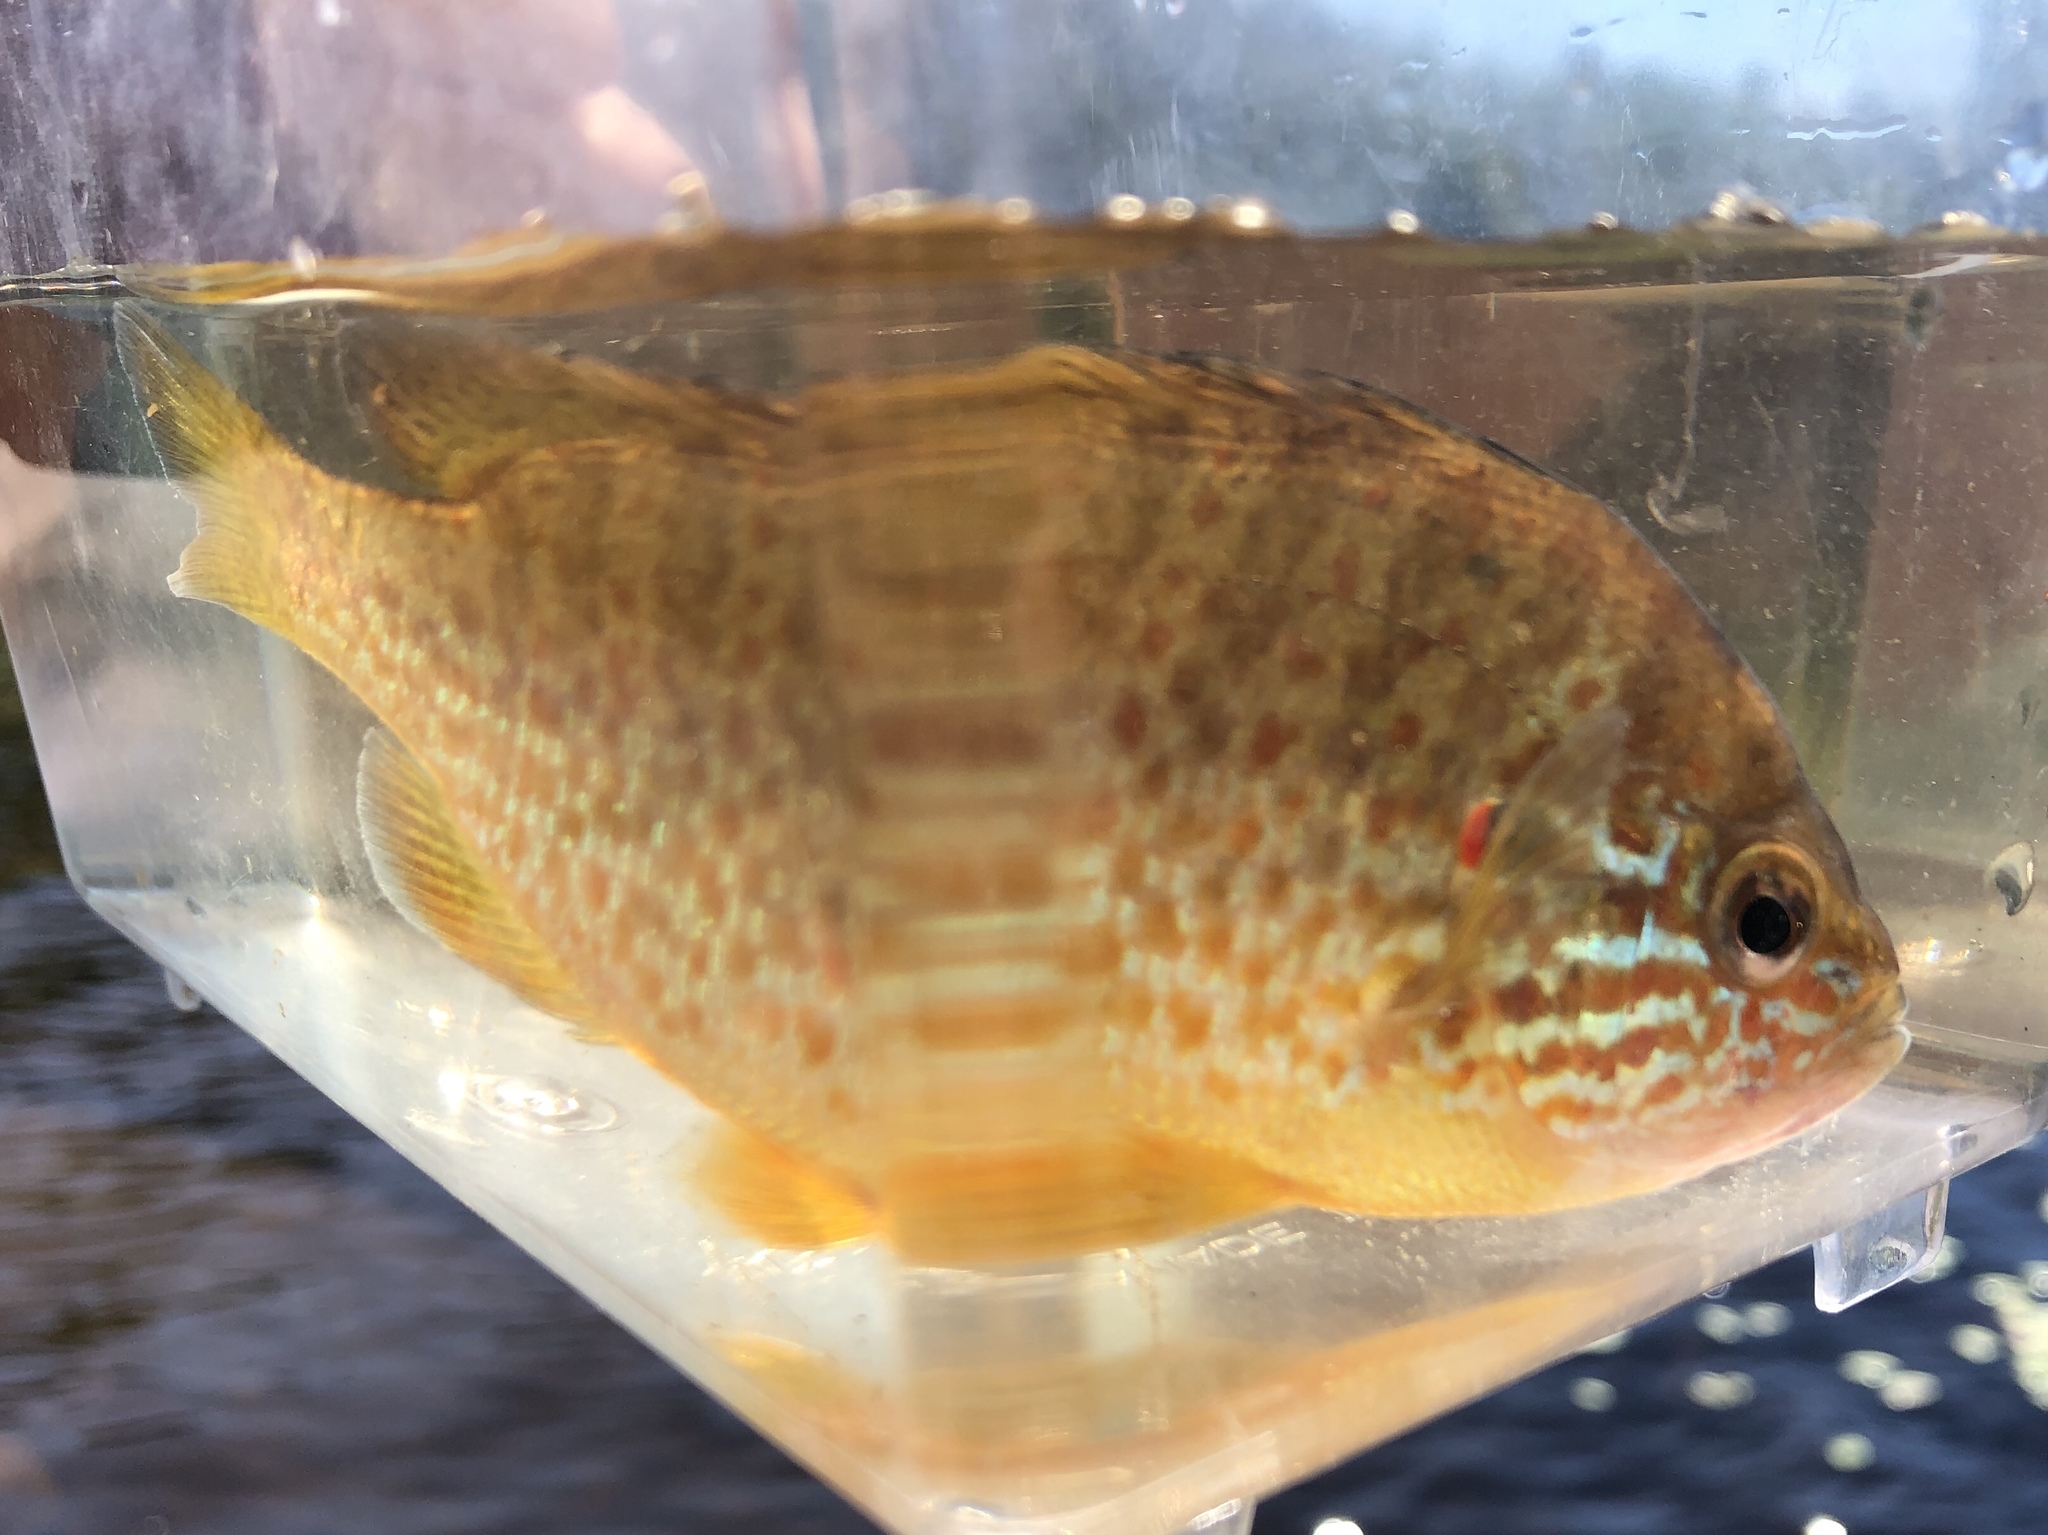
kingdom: Animalia
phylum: Chordata
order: Perciformes
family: Centrarchidae
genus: Lepomis
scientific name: Lepomis gibbosus
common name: Pumpkinseed
